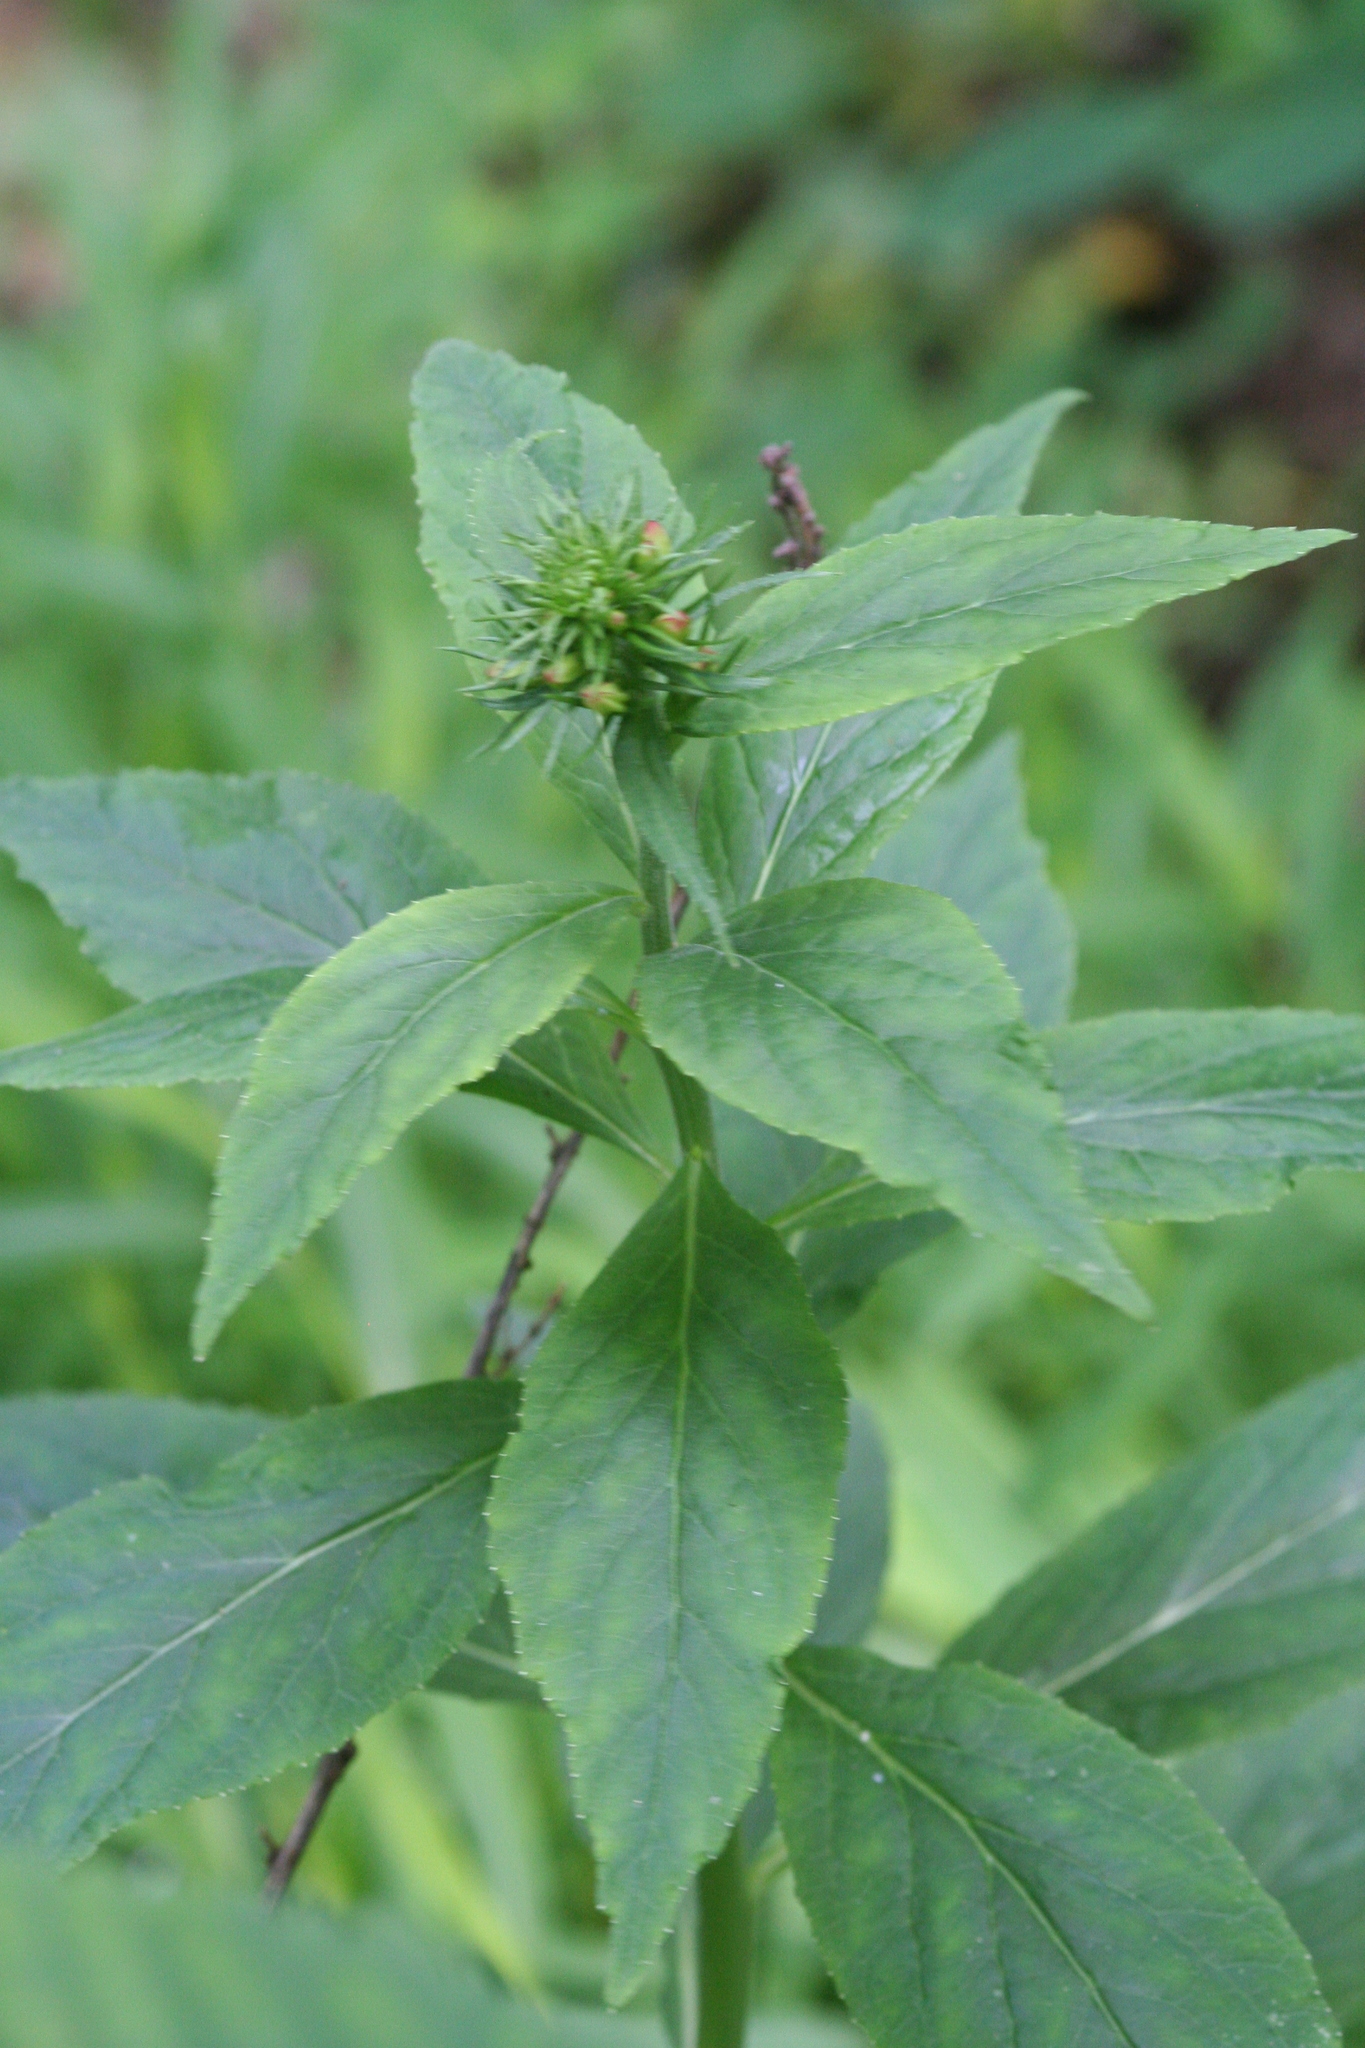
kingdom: Plantae
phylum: Tracheophyta
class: Magnoliopsida
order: Asterales
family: Campanulaceae
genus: Lobelia
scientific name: Lobelia cardinalis
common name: Cardinal flower
